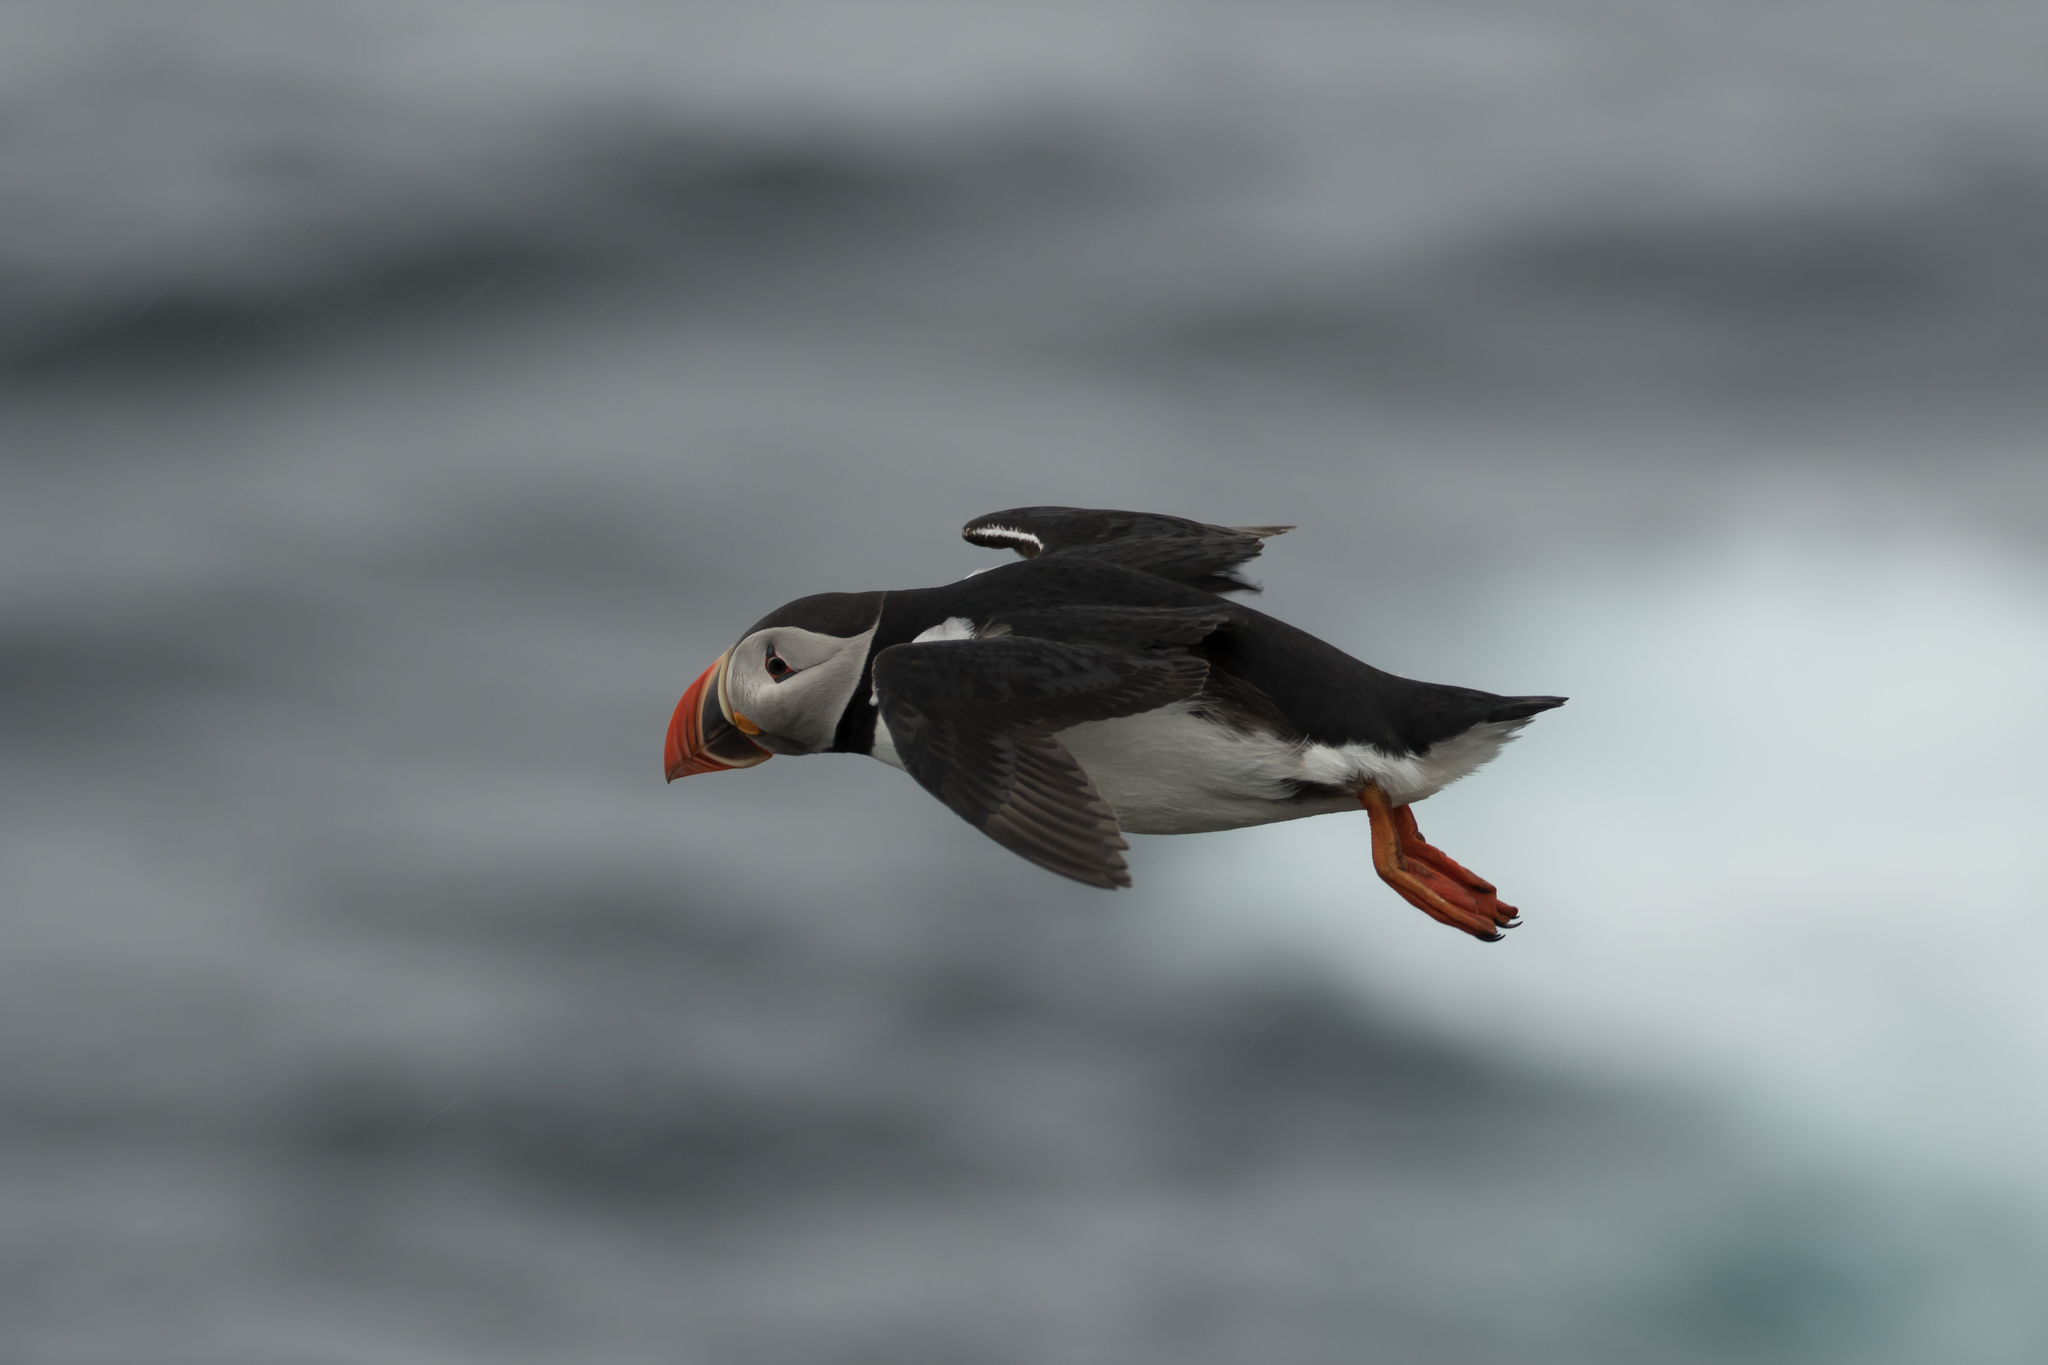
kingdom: Animalia
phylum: Chordata
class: Aves
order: Charadriiformes
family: Alcidae
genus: Fratercula
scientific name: Fratercula arctica
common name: Atlantic puffin
